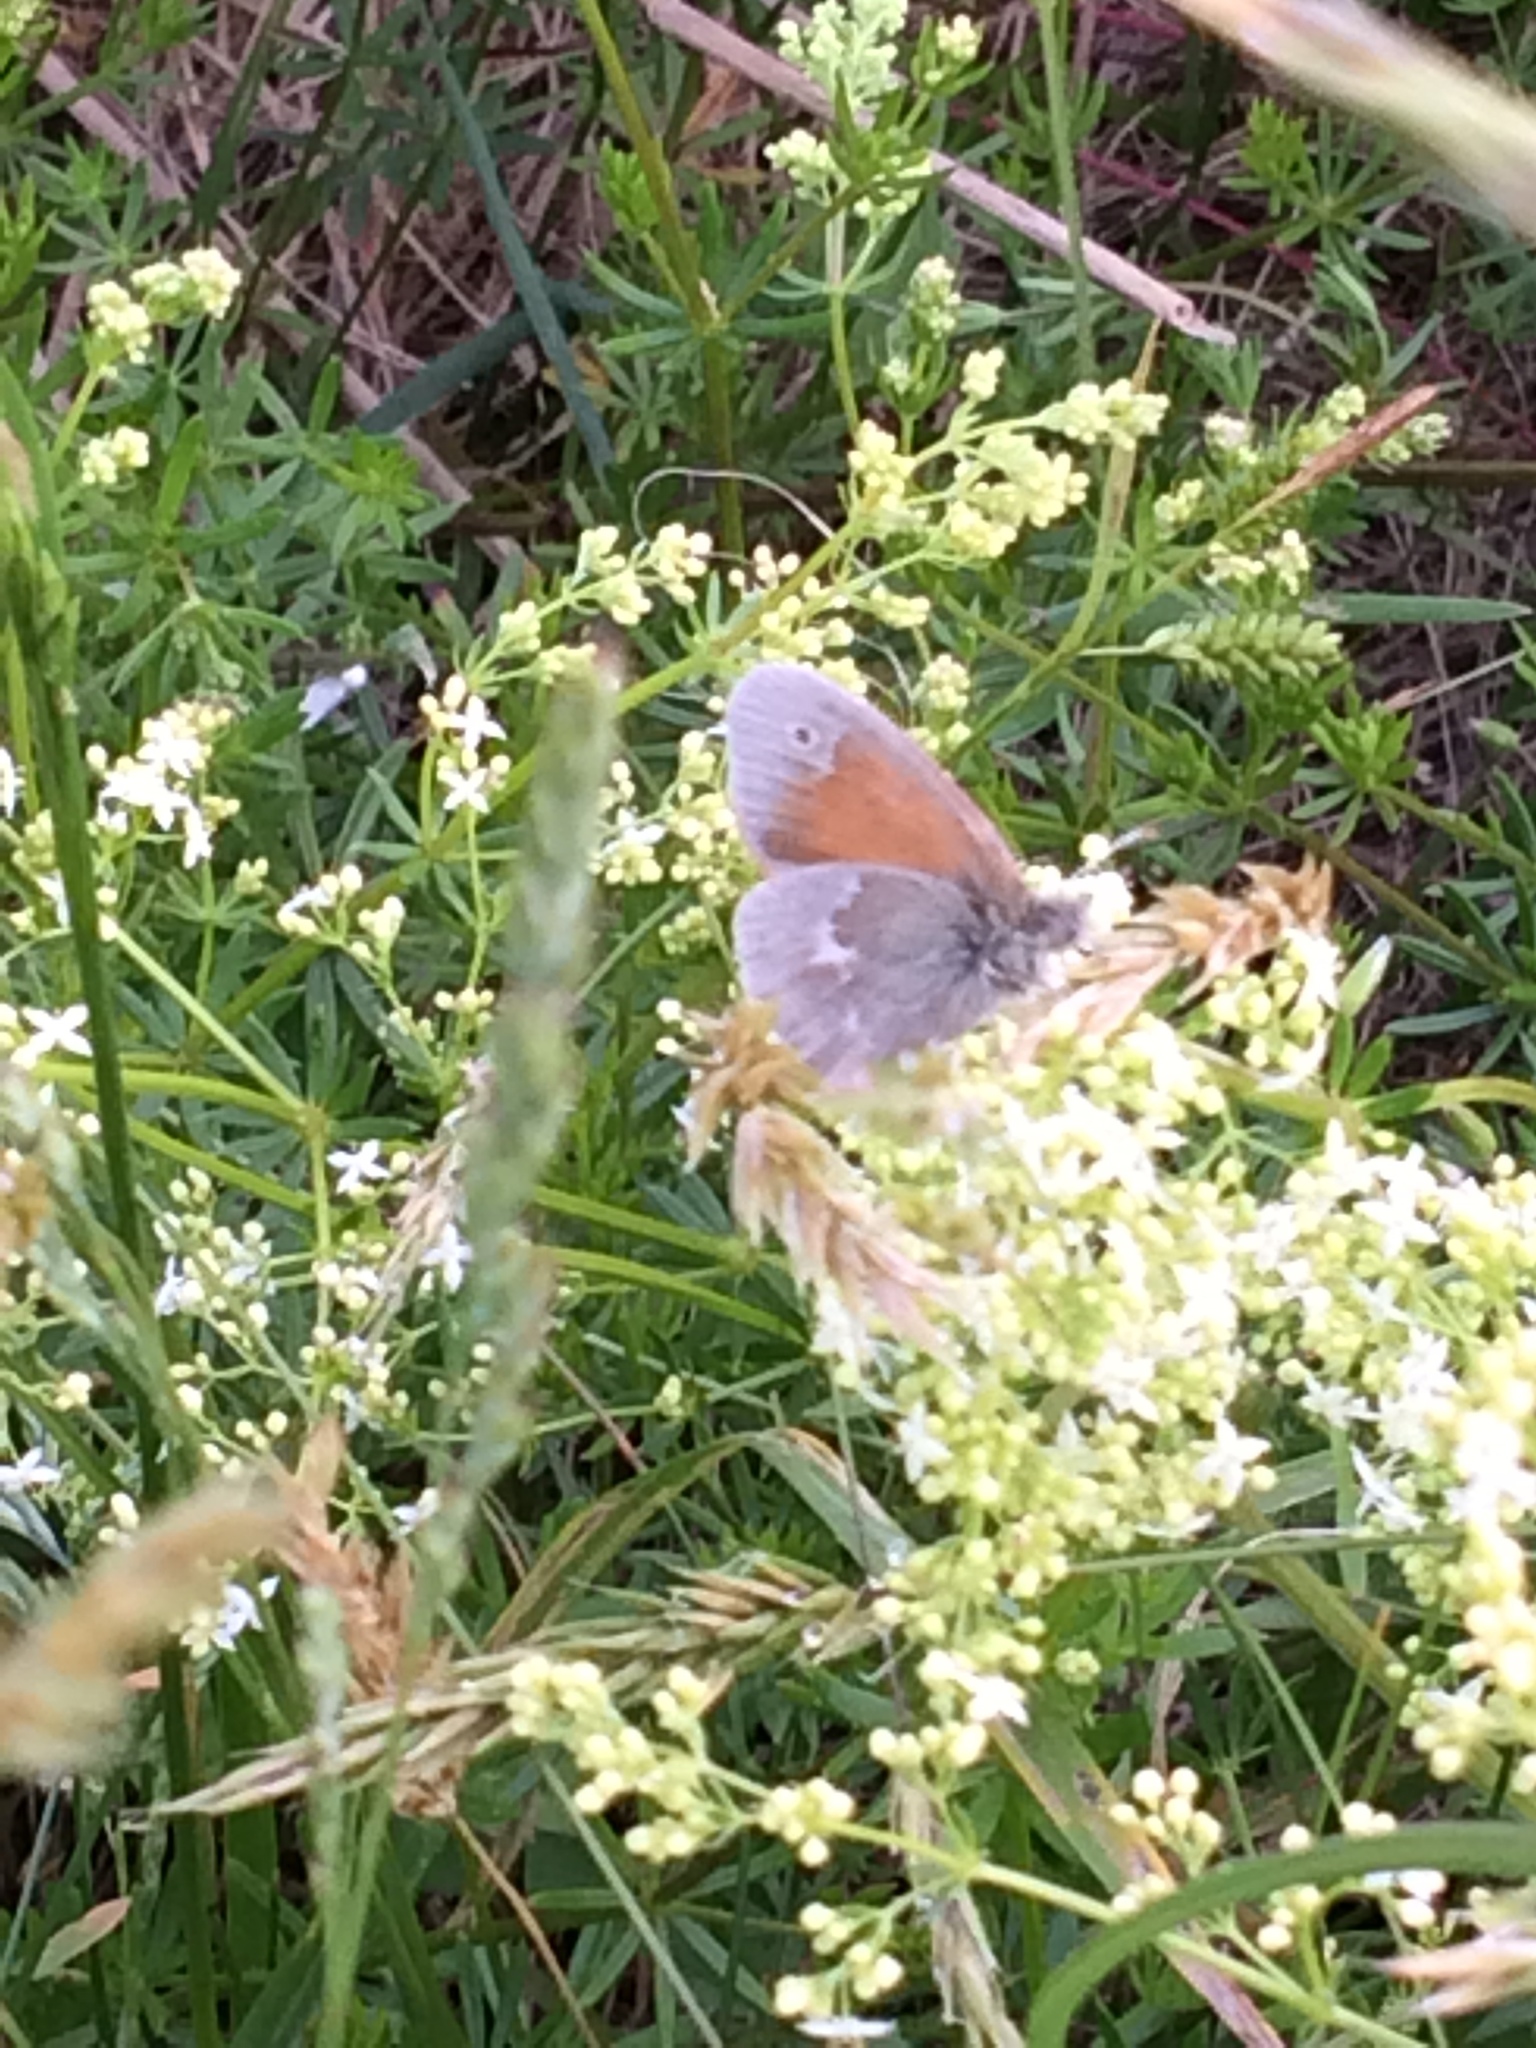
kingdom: Animalia
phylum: Arthropoda
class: Insecta
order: Lepidoptera
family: Nymphalidae
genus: Coenonympha
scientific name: Coenonympha california
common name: Common ringlet
